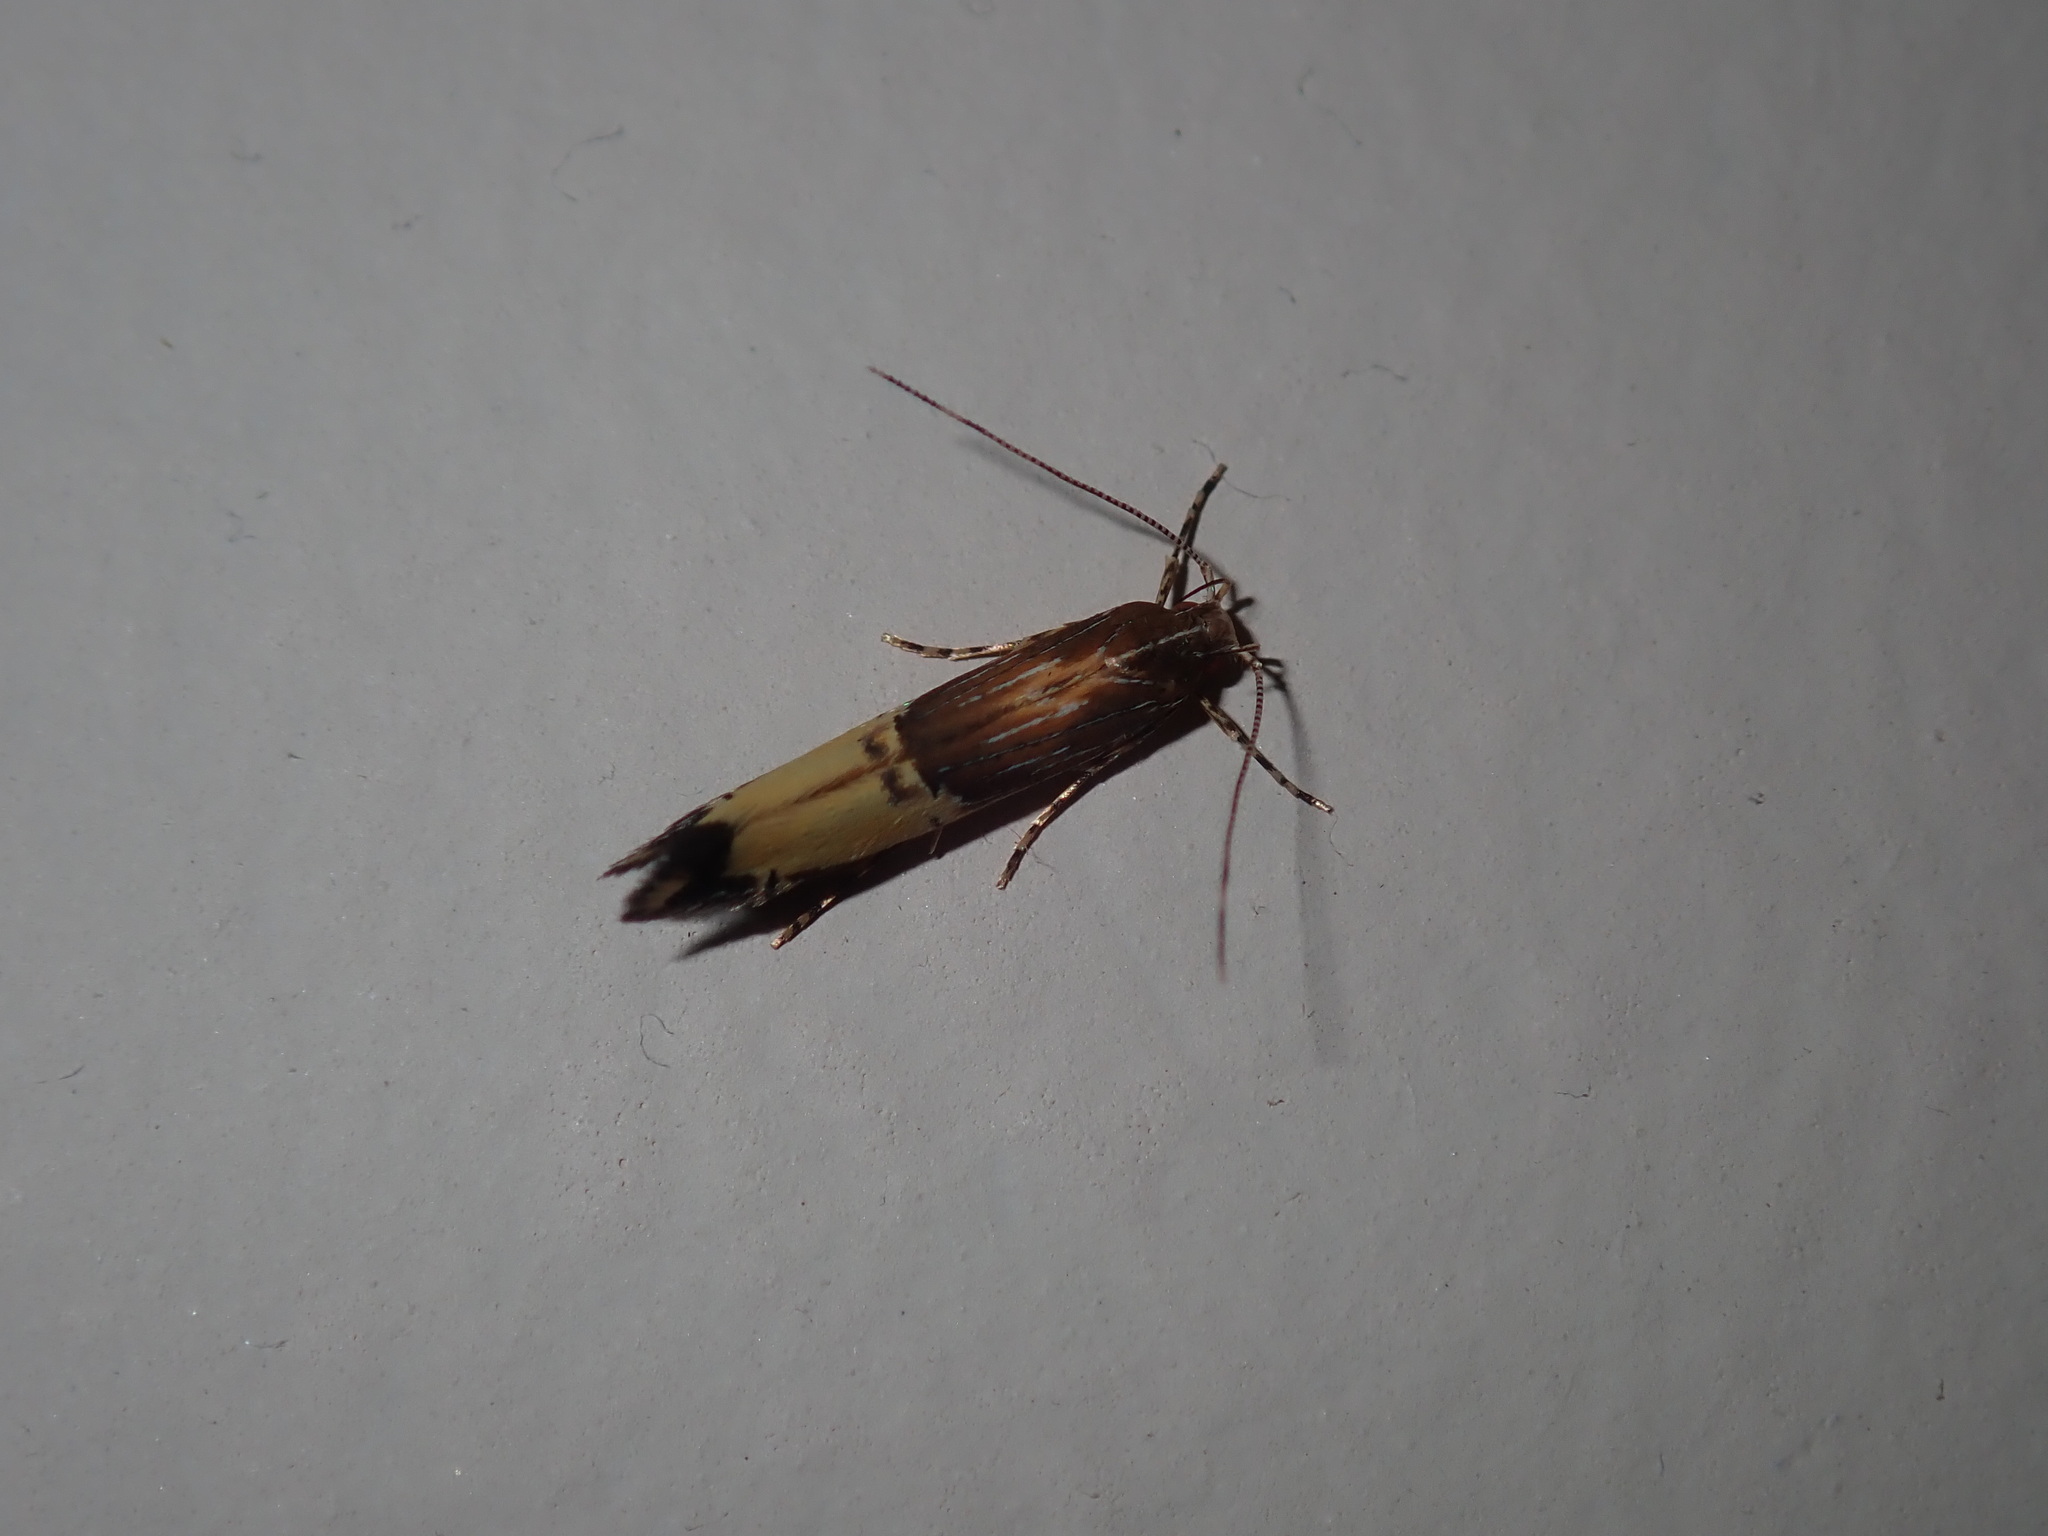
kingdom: Animalia
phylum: Arthropoda
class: Insecta
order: Lepidoptera
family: Cosmopterigidae
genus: Labdia
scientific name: Labdia deliciosella
